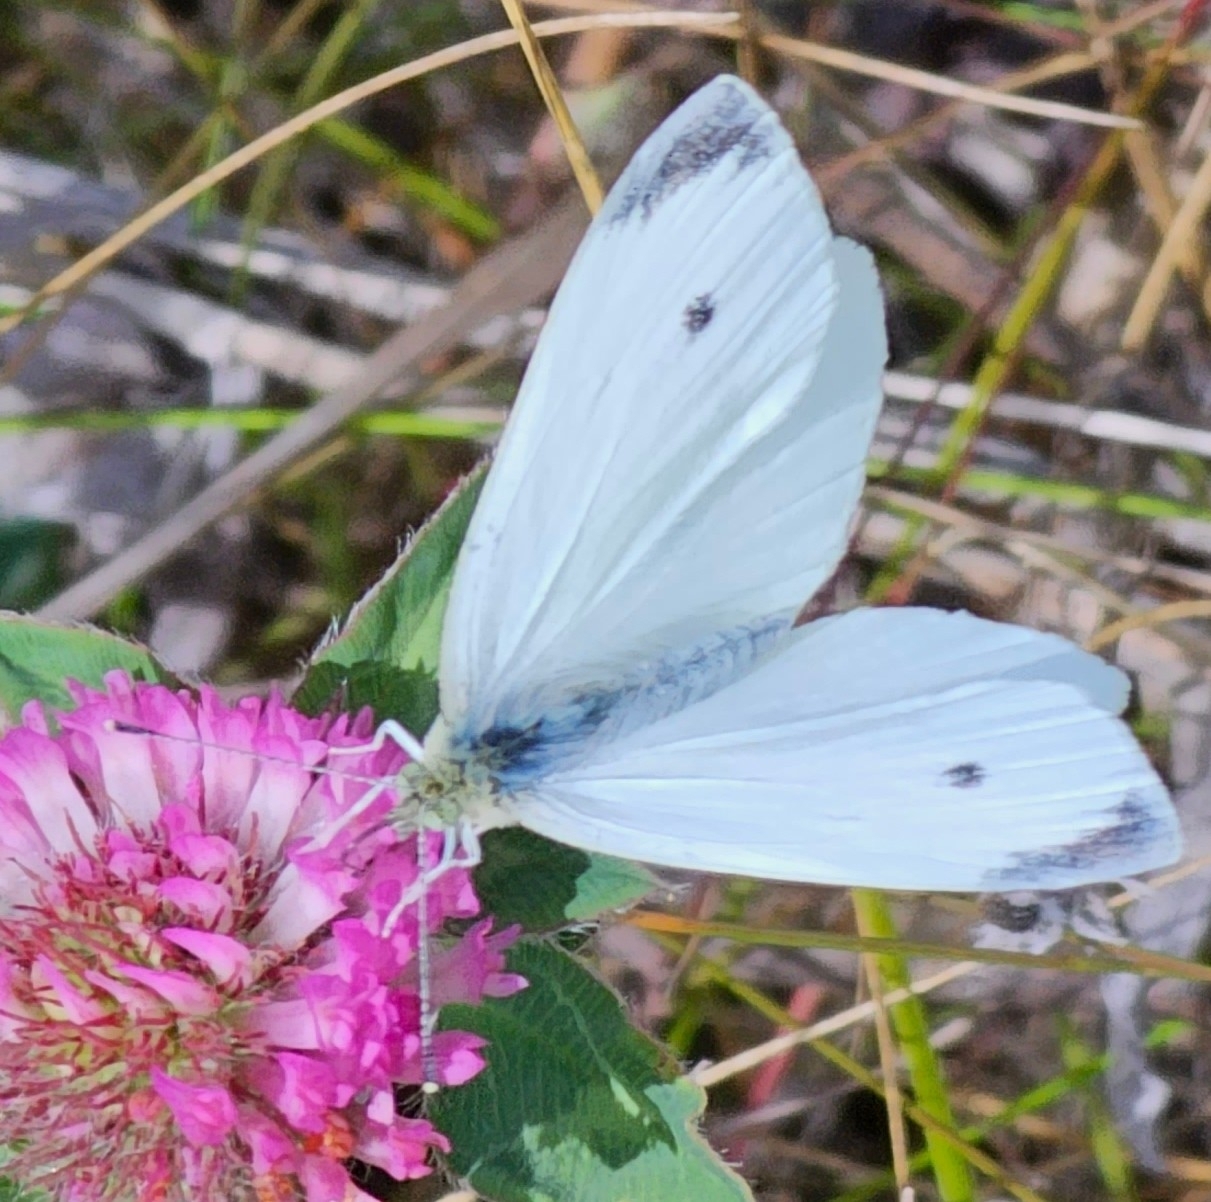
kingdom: Animalia
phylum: Arthropoda
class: Insecta
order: Lepidoptera
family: Pieridae
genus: Pieris
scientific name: Pieris rapae
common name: Small white
